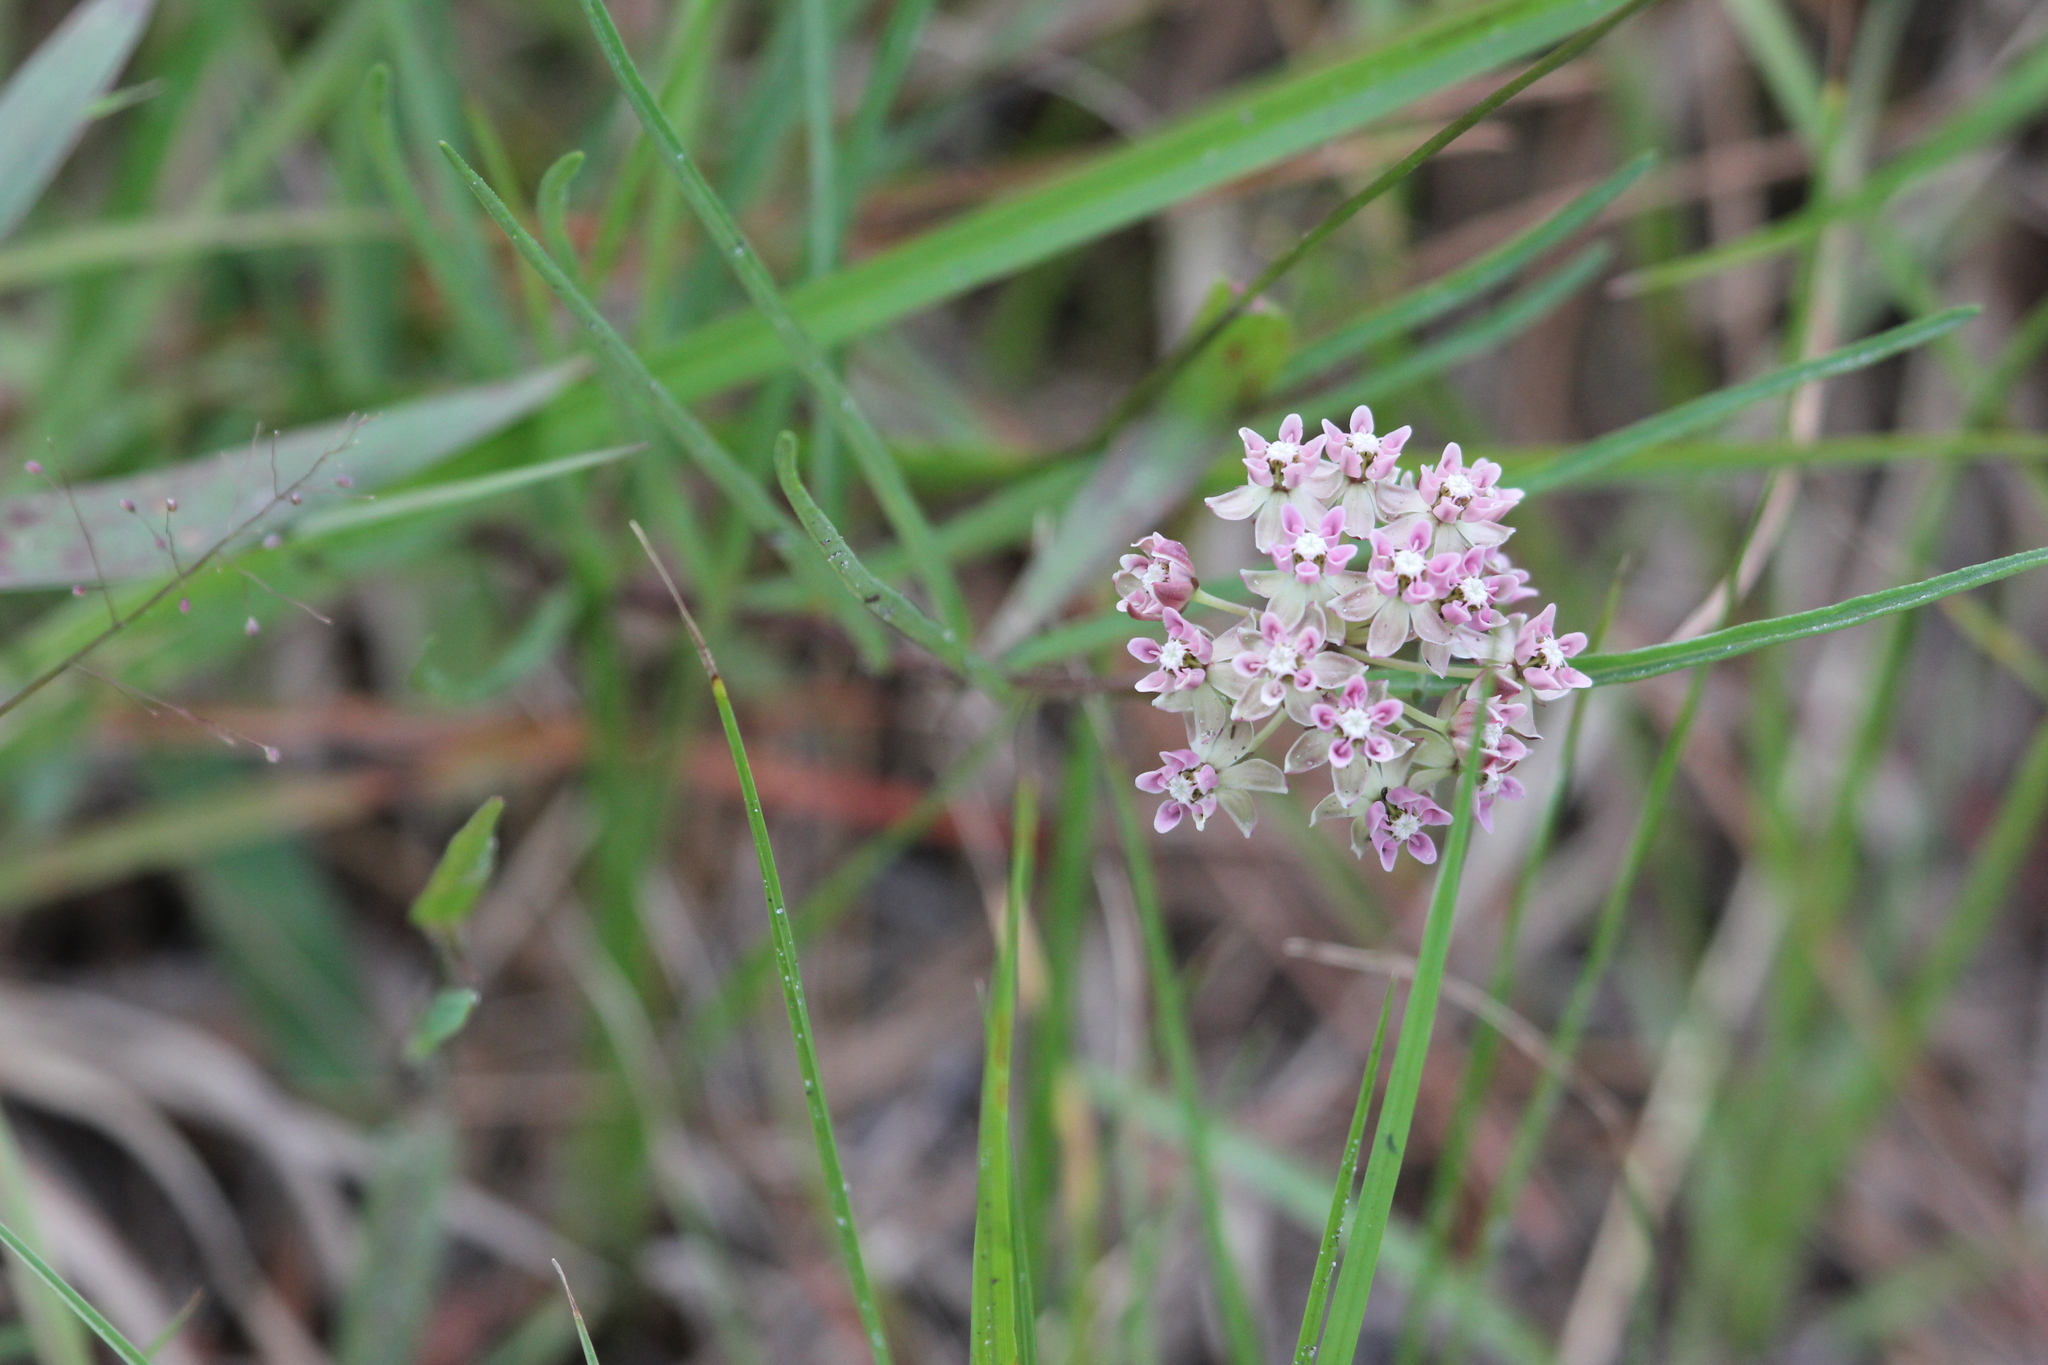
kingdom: Plantae
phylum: Tracheophyta
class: Magnoliopsida
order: Gentianales
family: Apocynaceae
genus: Asclepias
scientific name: Asclepias michauxii
